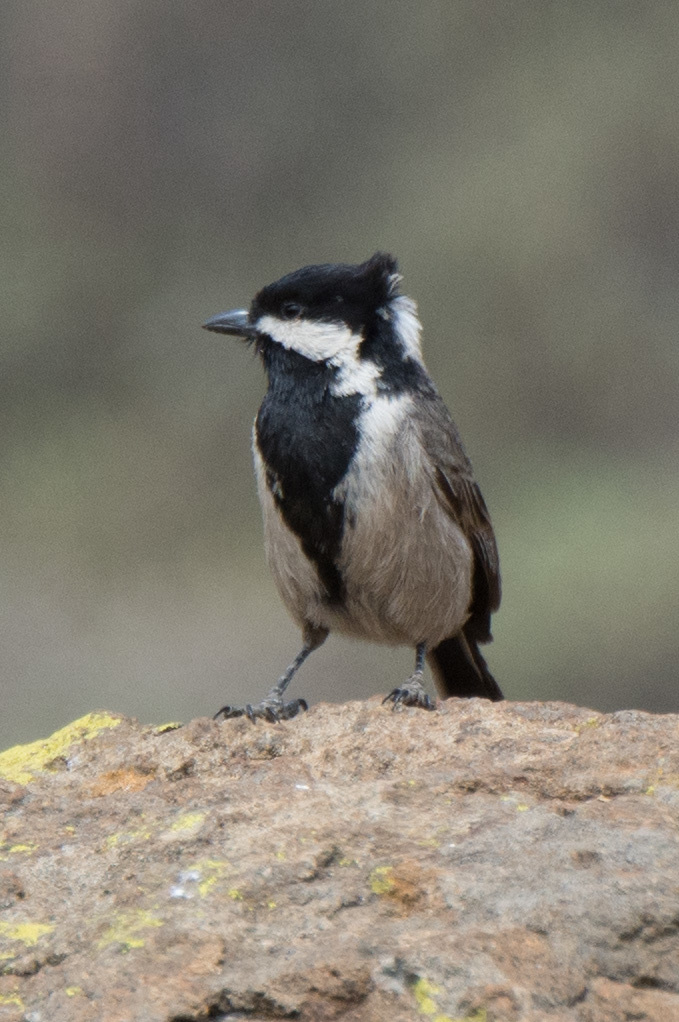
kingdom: Animalia
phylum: Chordata
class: Aves
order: Passeriformes
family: Paridae
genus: Parus
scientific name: Parus afer
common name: Grey tit
